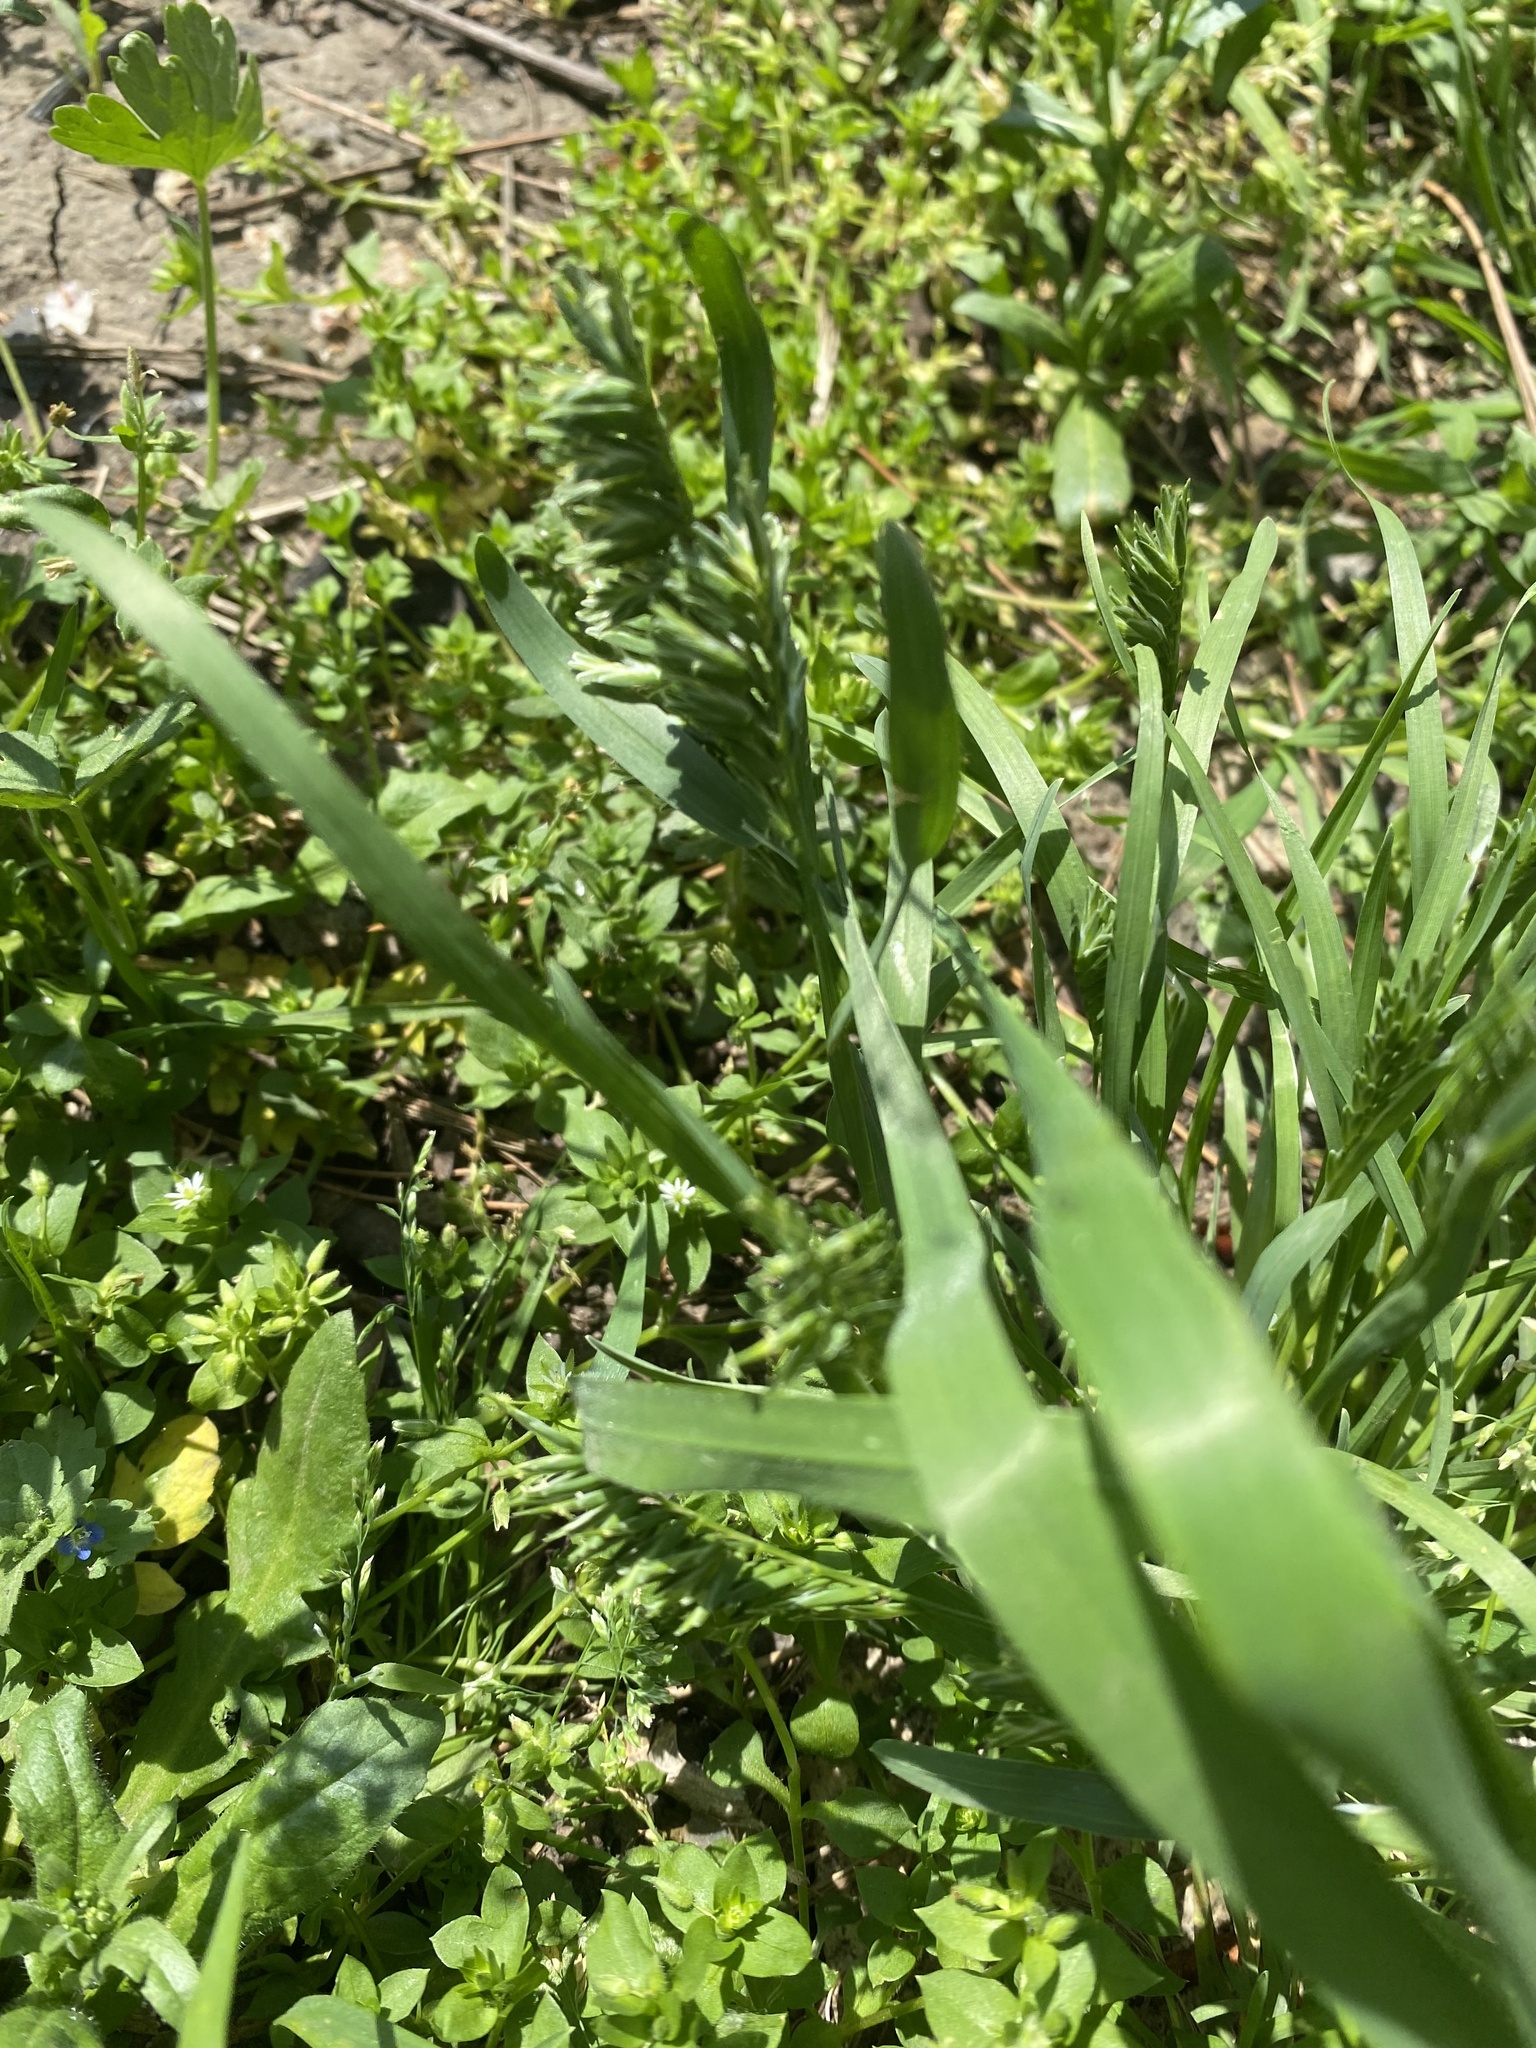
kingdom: Plantae
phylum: Tracheophyta
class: Liliopsida
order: Poales
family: Poaceae
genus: Sclerochloa
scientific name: Sclerochloa dura
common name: Common hardgrass
